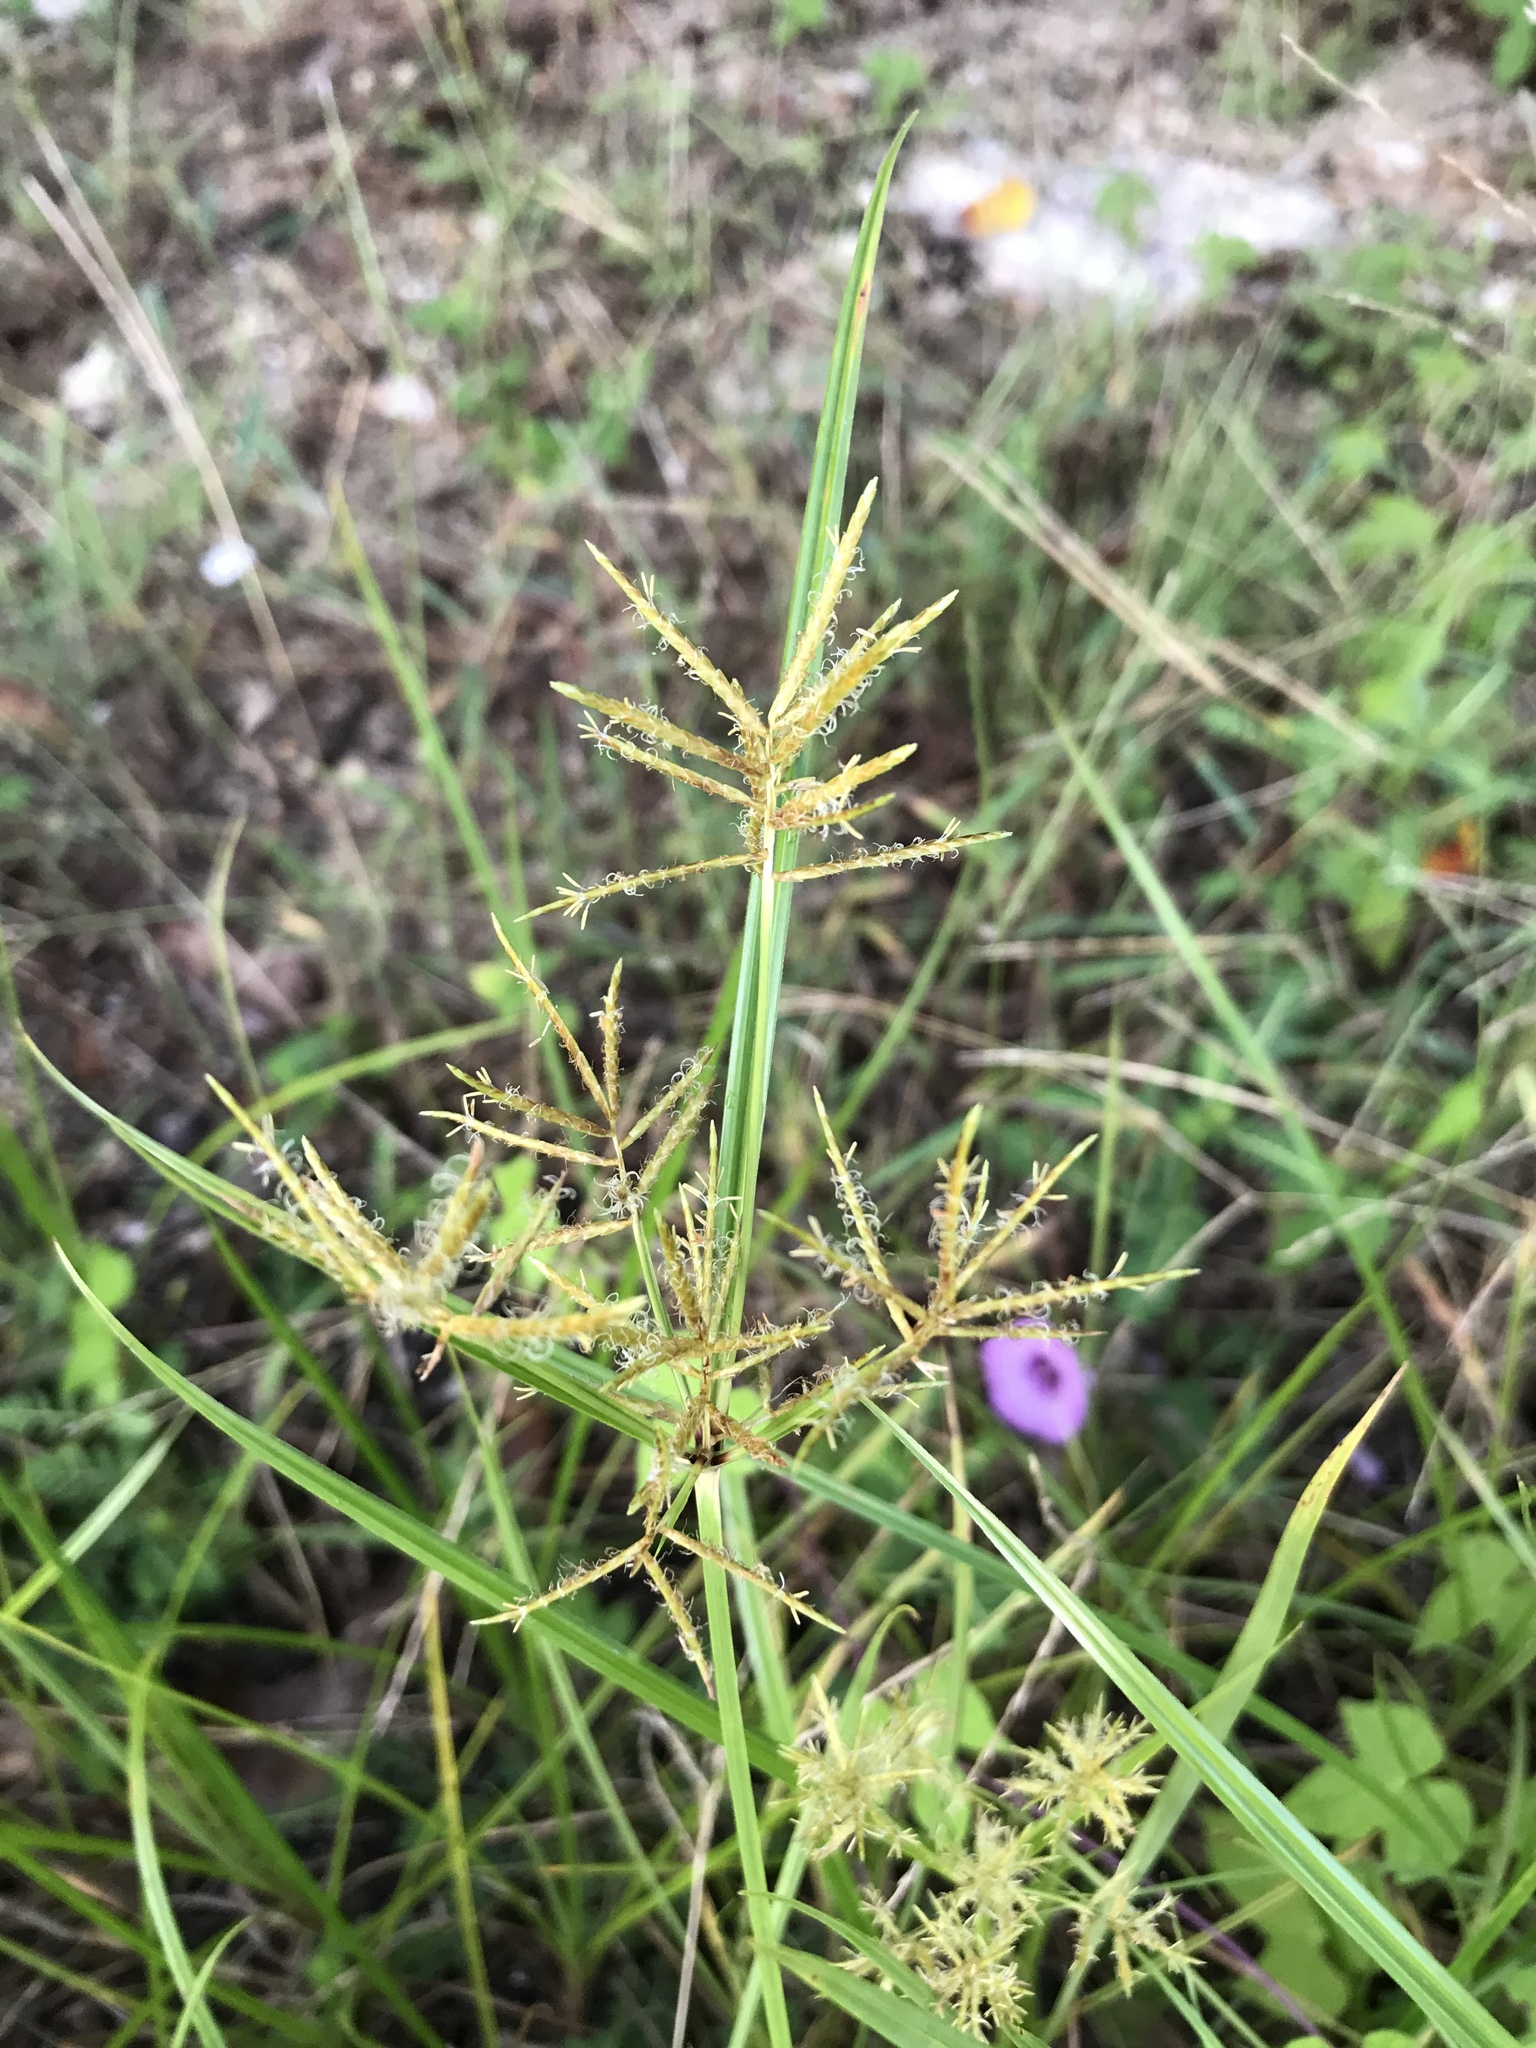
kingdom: Plantae
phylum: Tracheophyta
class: Liliopsida
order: Poales
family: Cyperaceae
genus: Cyperus
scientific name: Cyperus esculentus
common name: Yellow nutsedge
